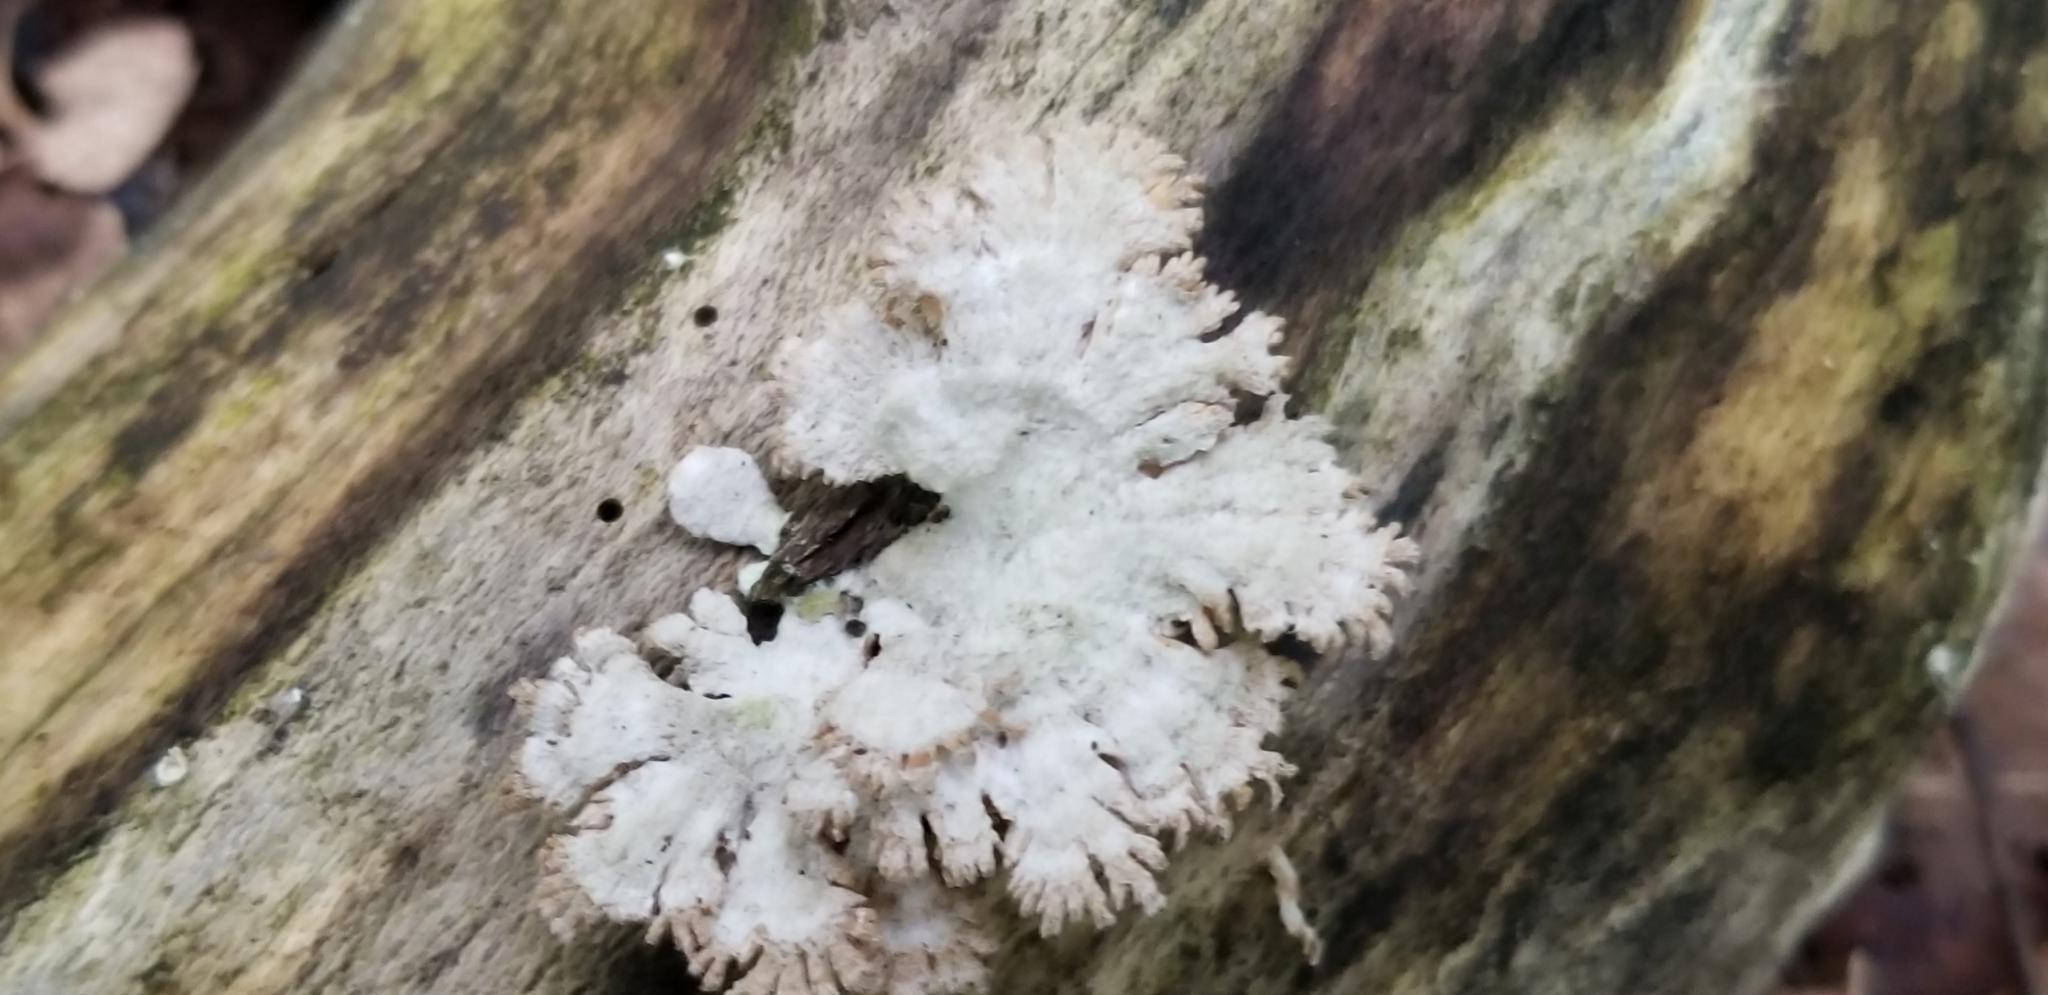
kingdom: Fungi
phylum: Basidiomycota
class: Agaricomycetes
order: Agaricales
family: Schizophyllaceae
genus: Schizophyllum
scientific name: Schizophyllum commune
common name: Common porecrust
